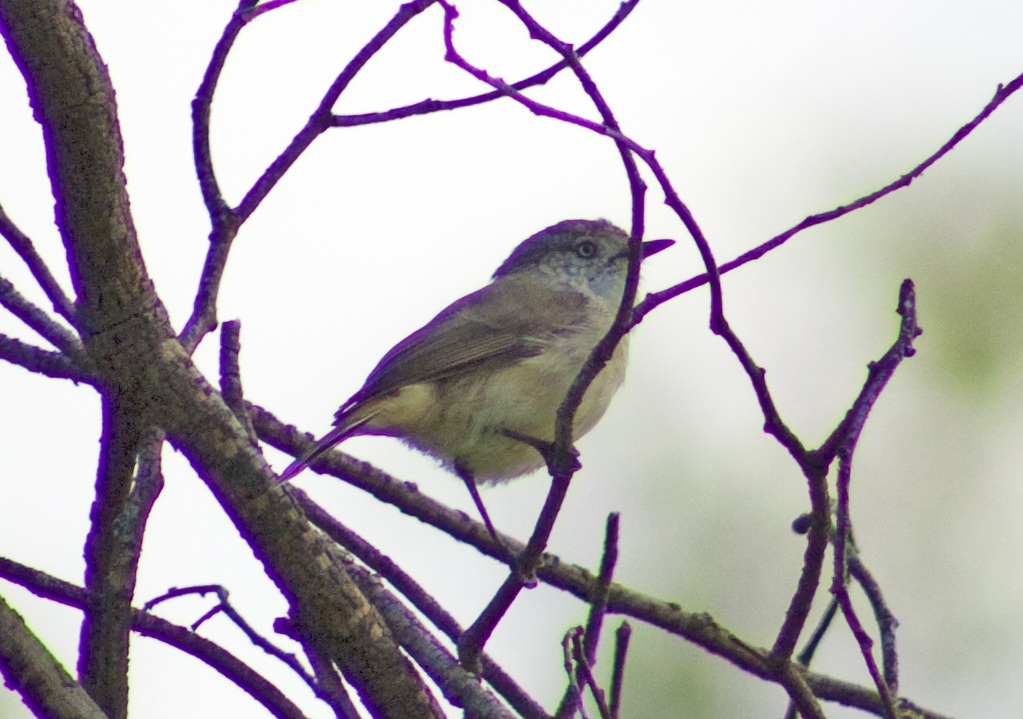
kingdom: Animalia
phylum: Chordata
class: Aves
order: Passeriformes
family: Acanthizidae
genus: Acanthiza
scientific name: Acanthiza uropygialis
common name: Chestnut-rumped thornbill
